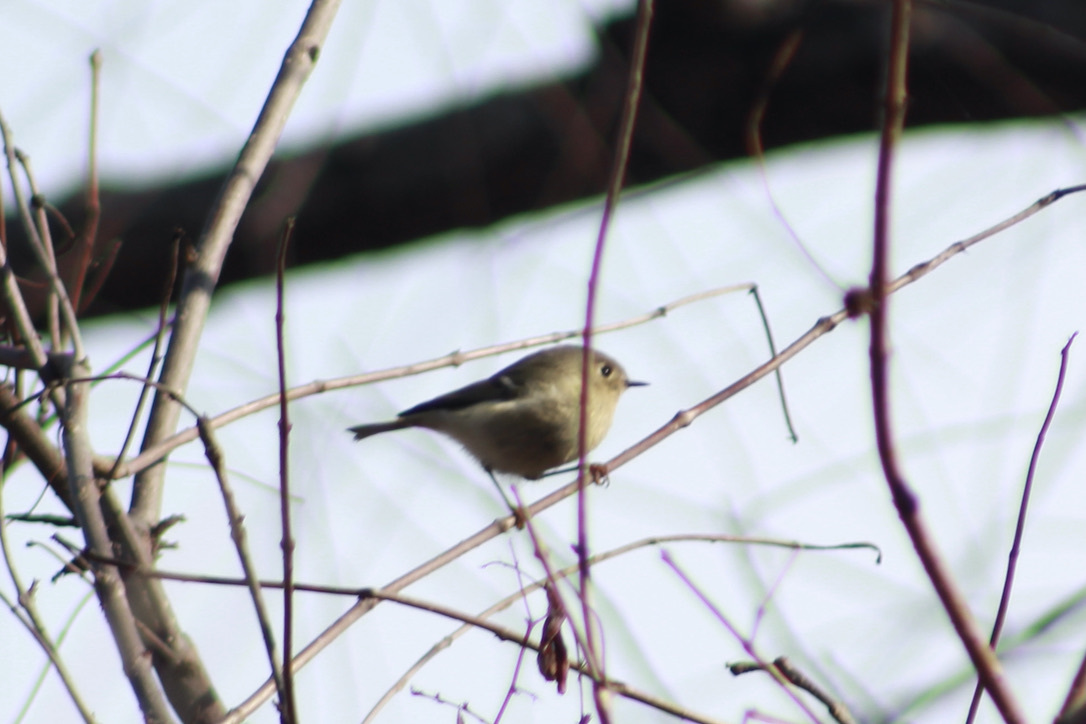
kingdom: Animalia
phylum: Chordata
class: Aves
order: Passeriformes
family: Regulidae
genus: Regulus
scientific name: Regulus calendula
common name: Ruby-crowned kinglet
